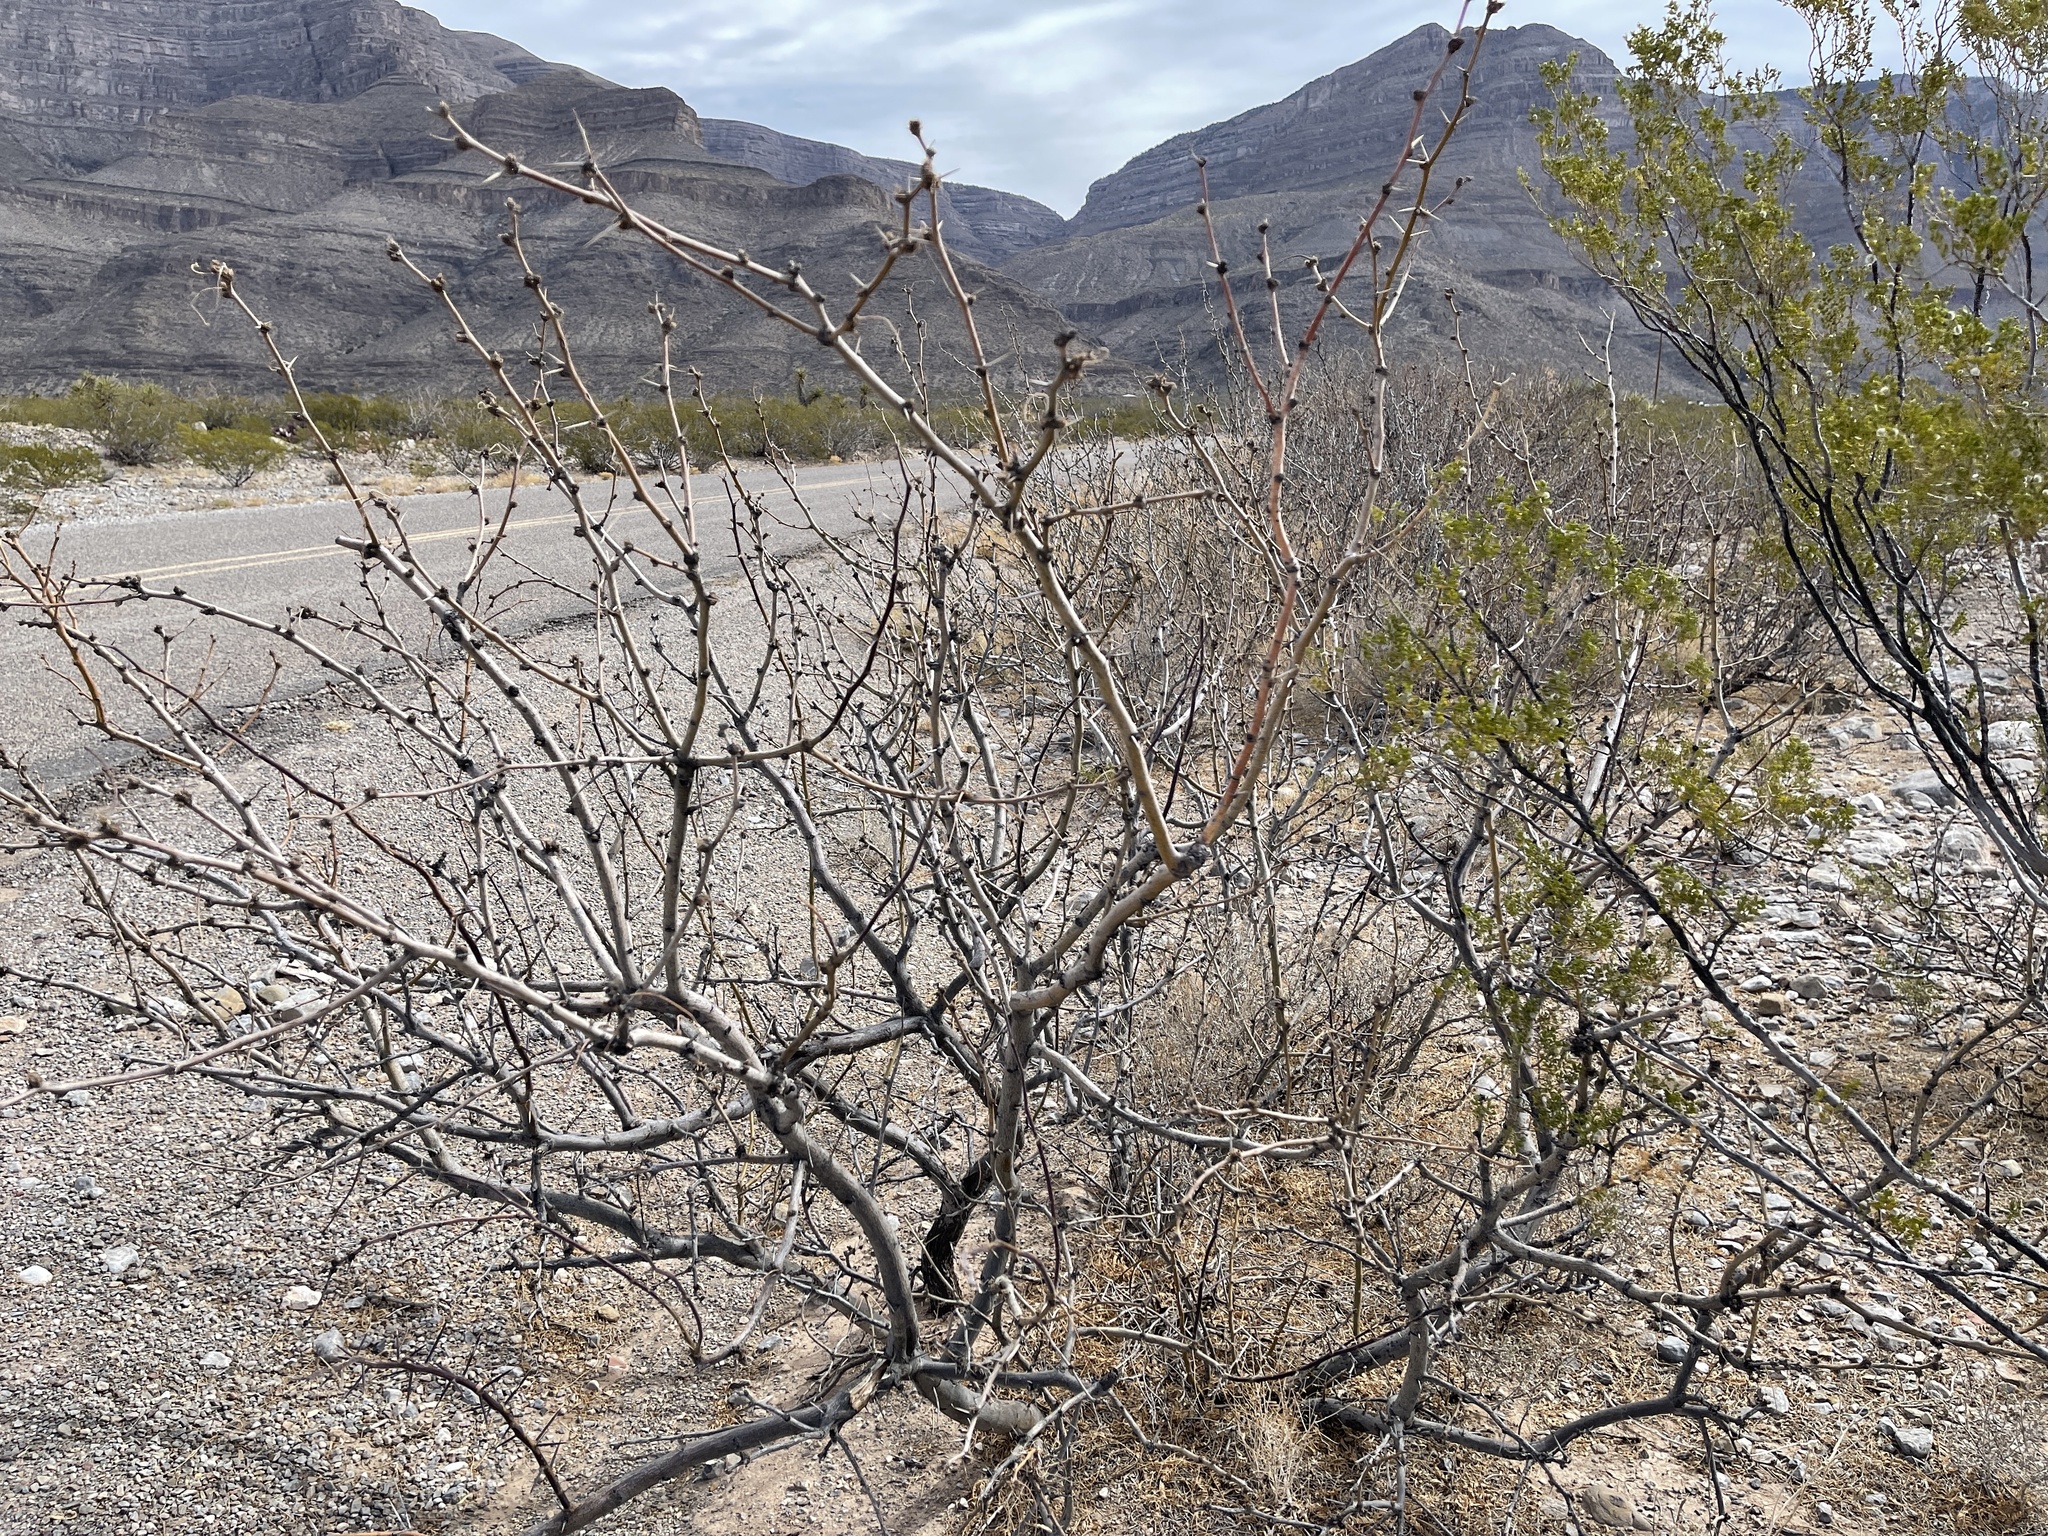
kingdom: Plantae
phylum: Tracheophyta
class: Magnoliopsida
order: Fabales
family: Fabaceae
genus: Prosopis
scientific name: Prosopis glandulosa
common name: Honey mesquite
